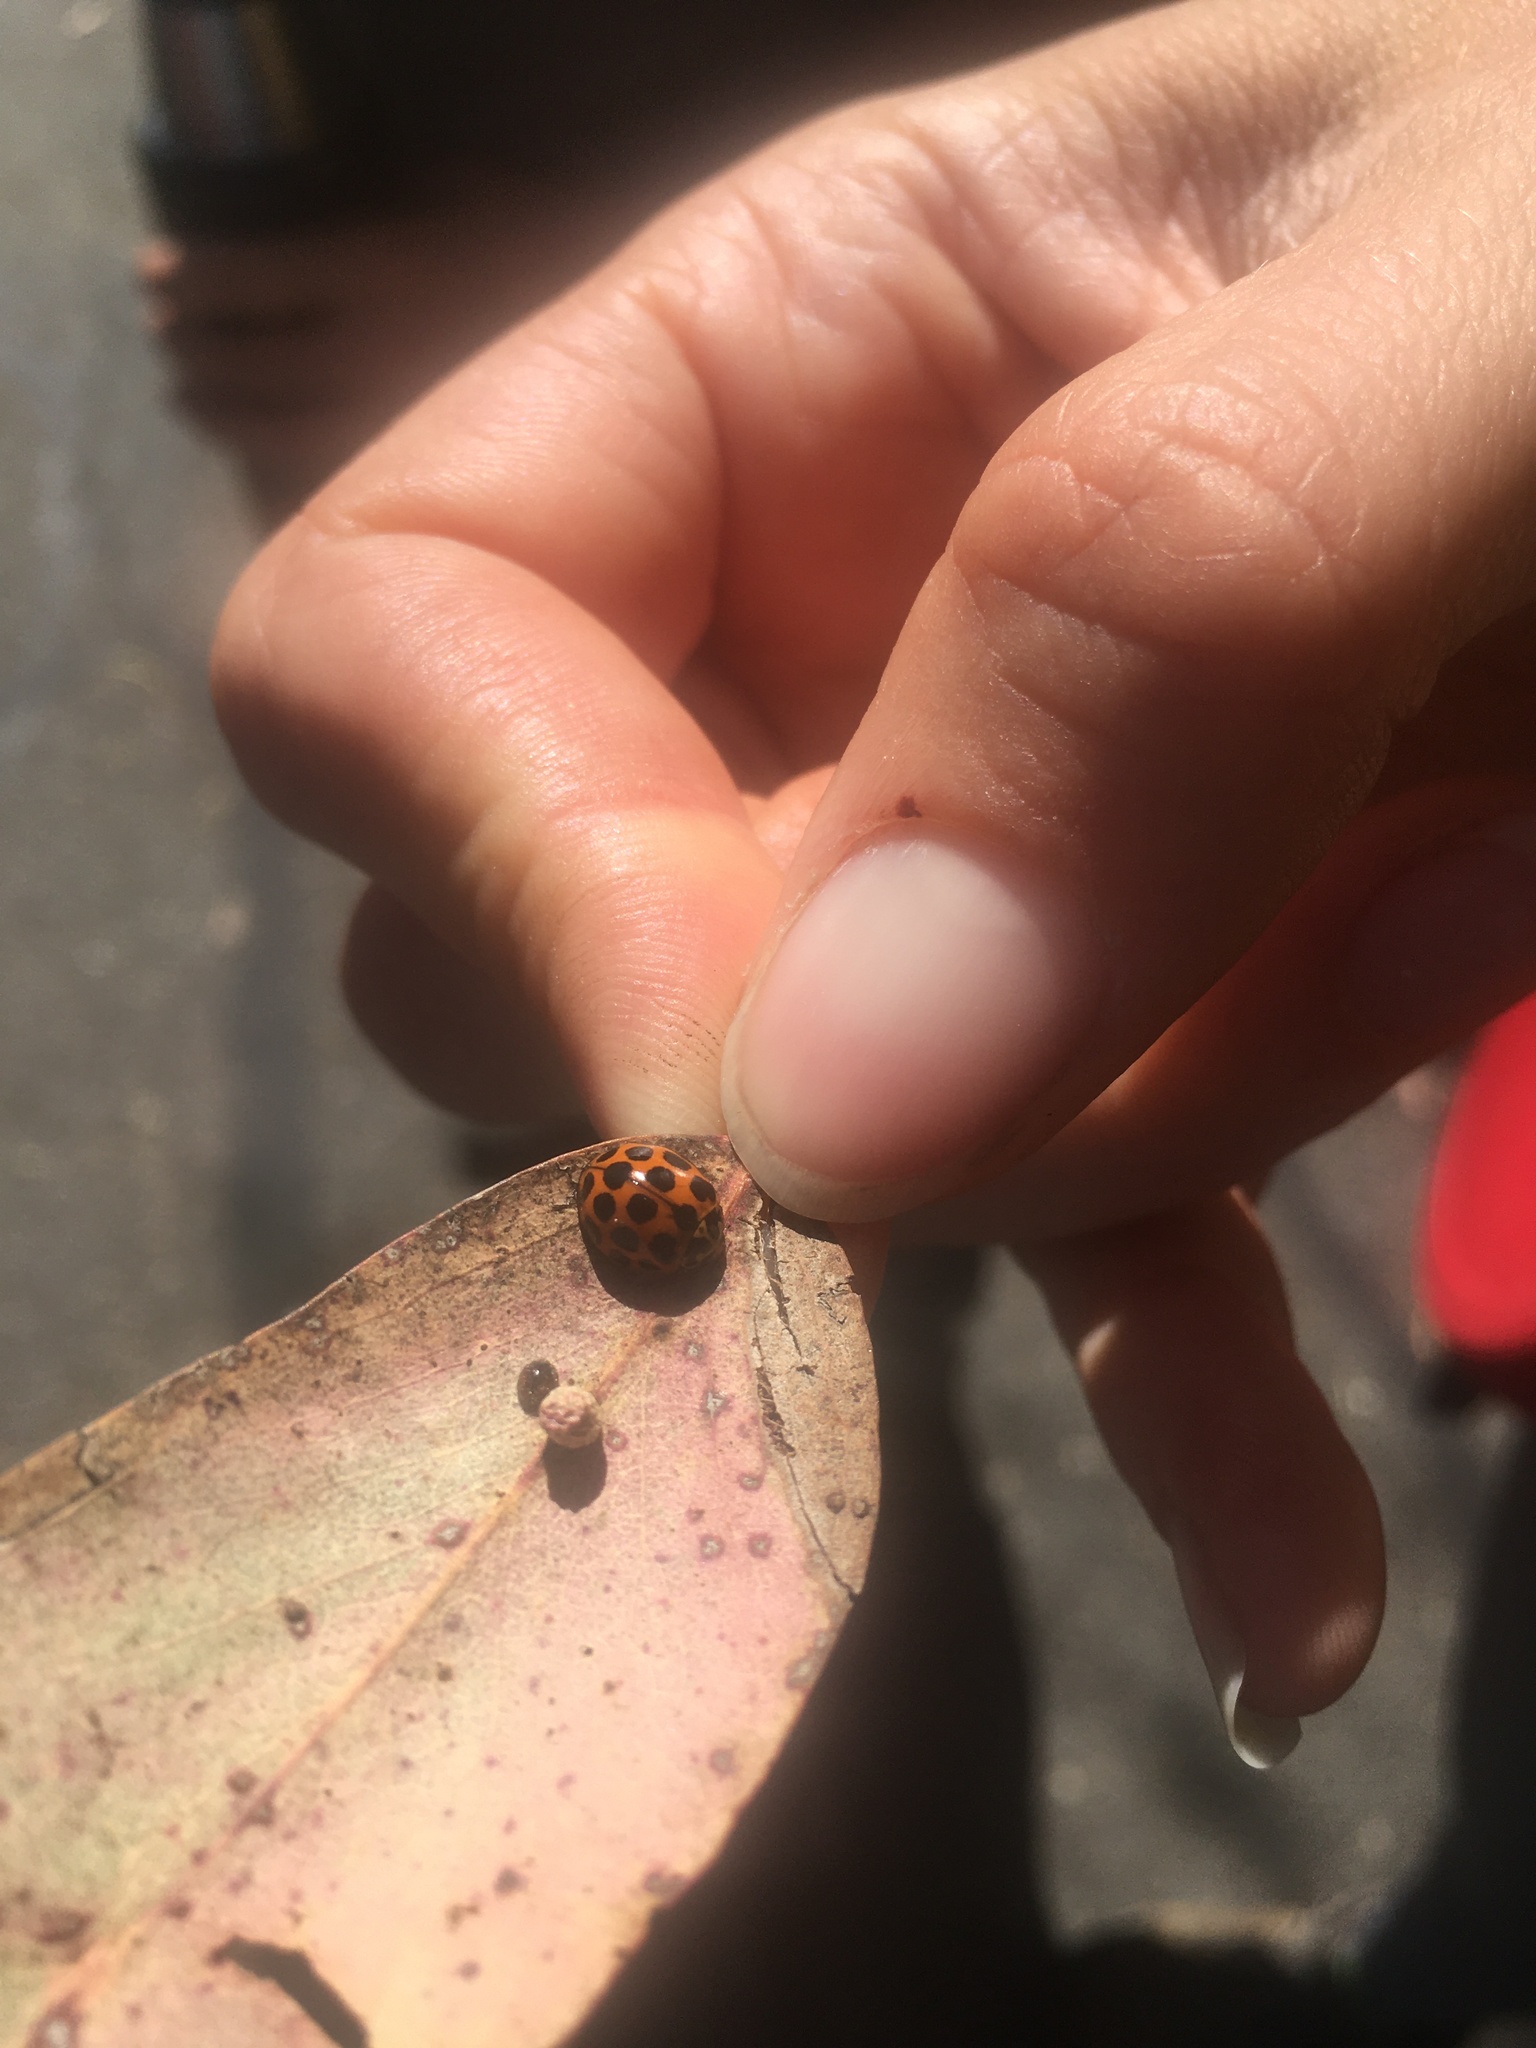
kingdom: Animalia
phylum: Arthropoda
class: Insecta
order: Coleoptera
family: Coccinellidae
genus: Harmonia
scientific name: Harmonia conformis
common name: Common spotted ladybird beetle
